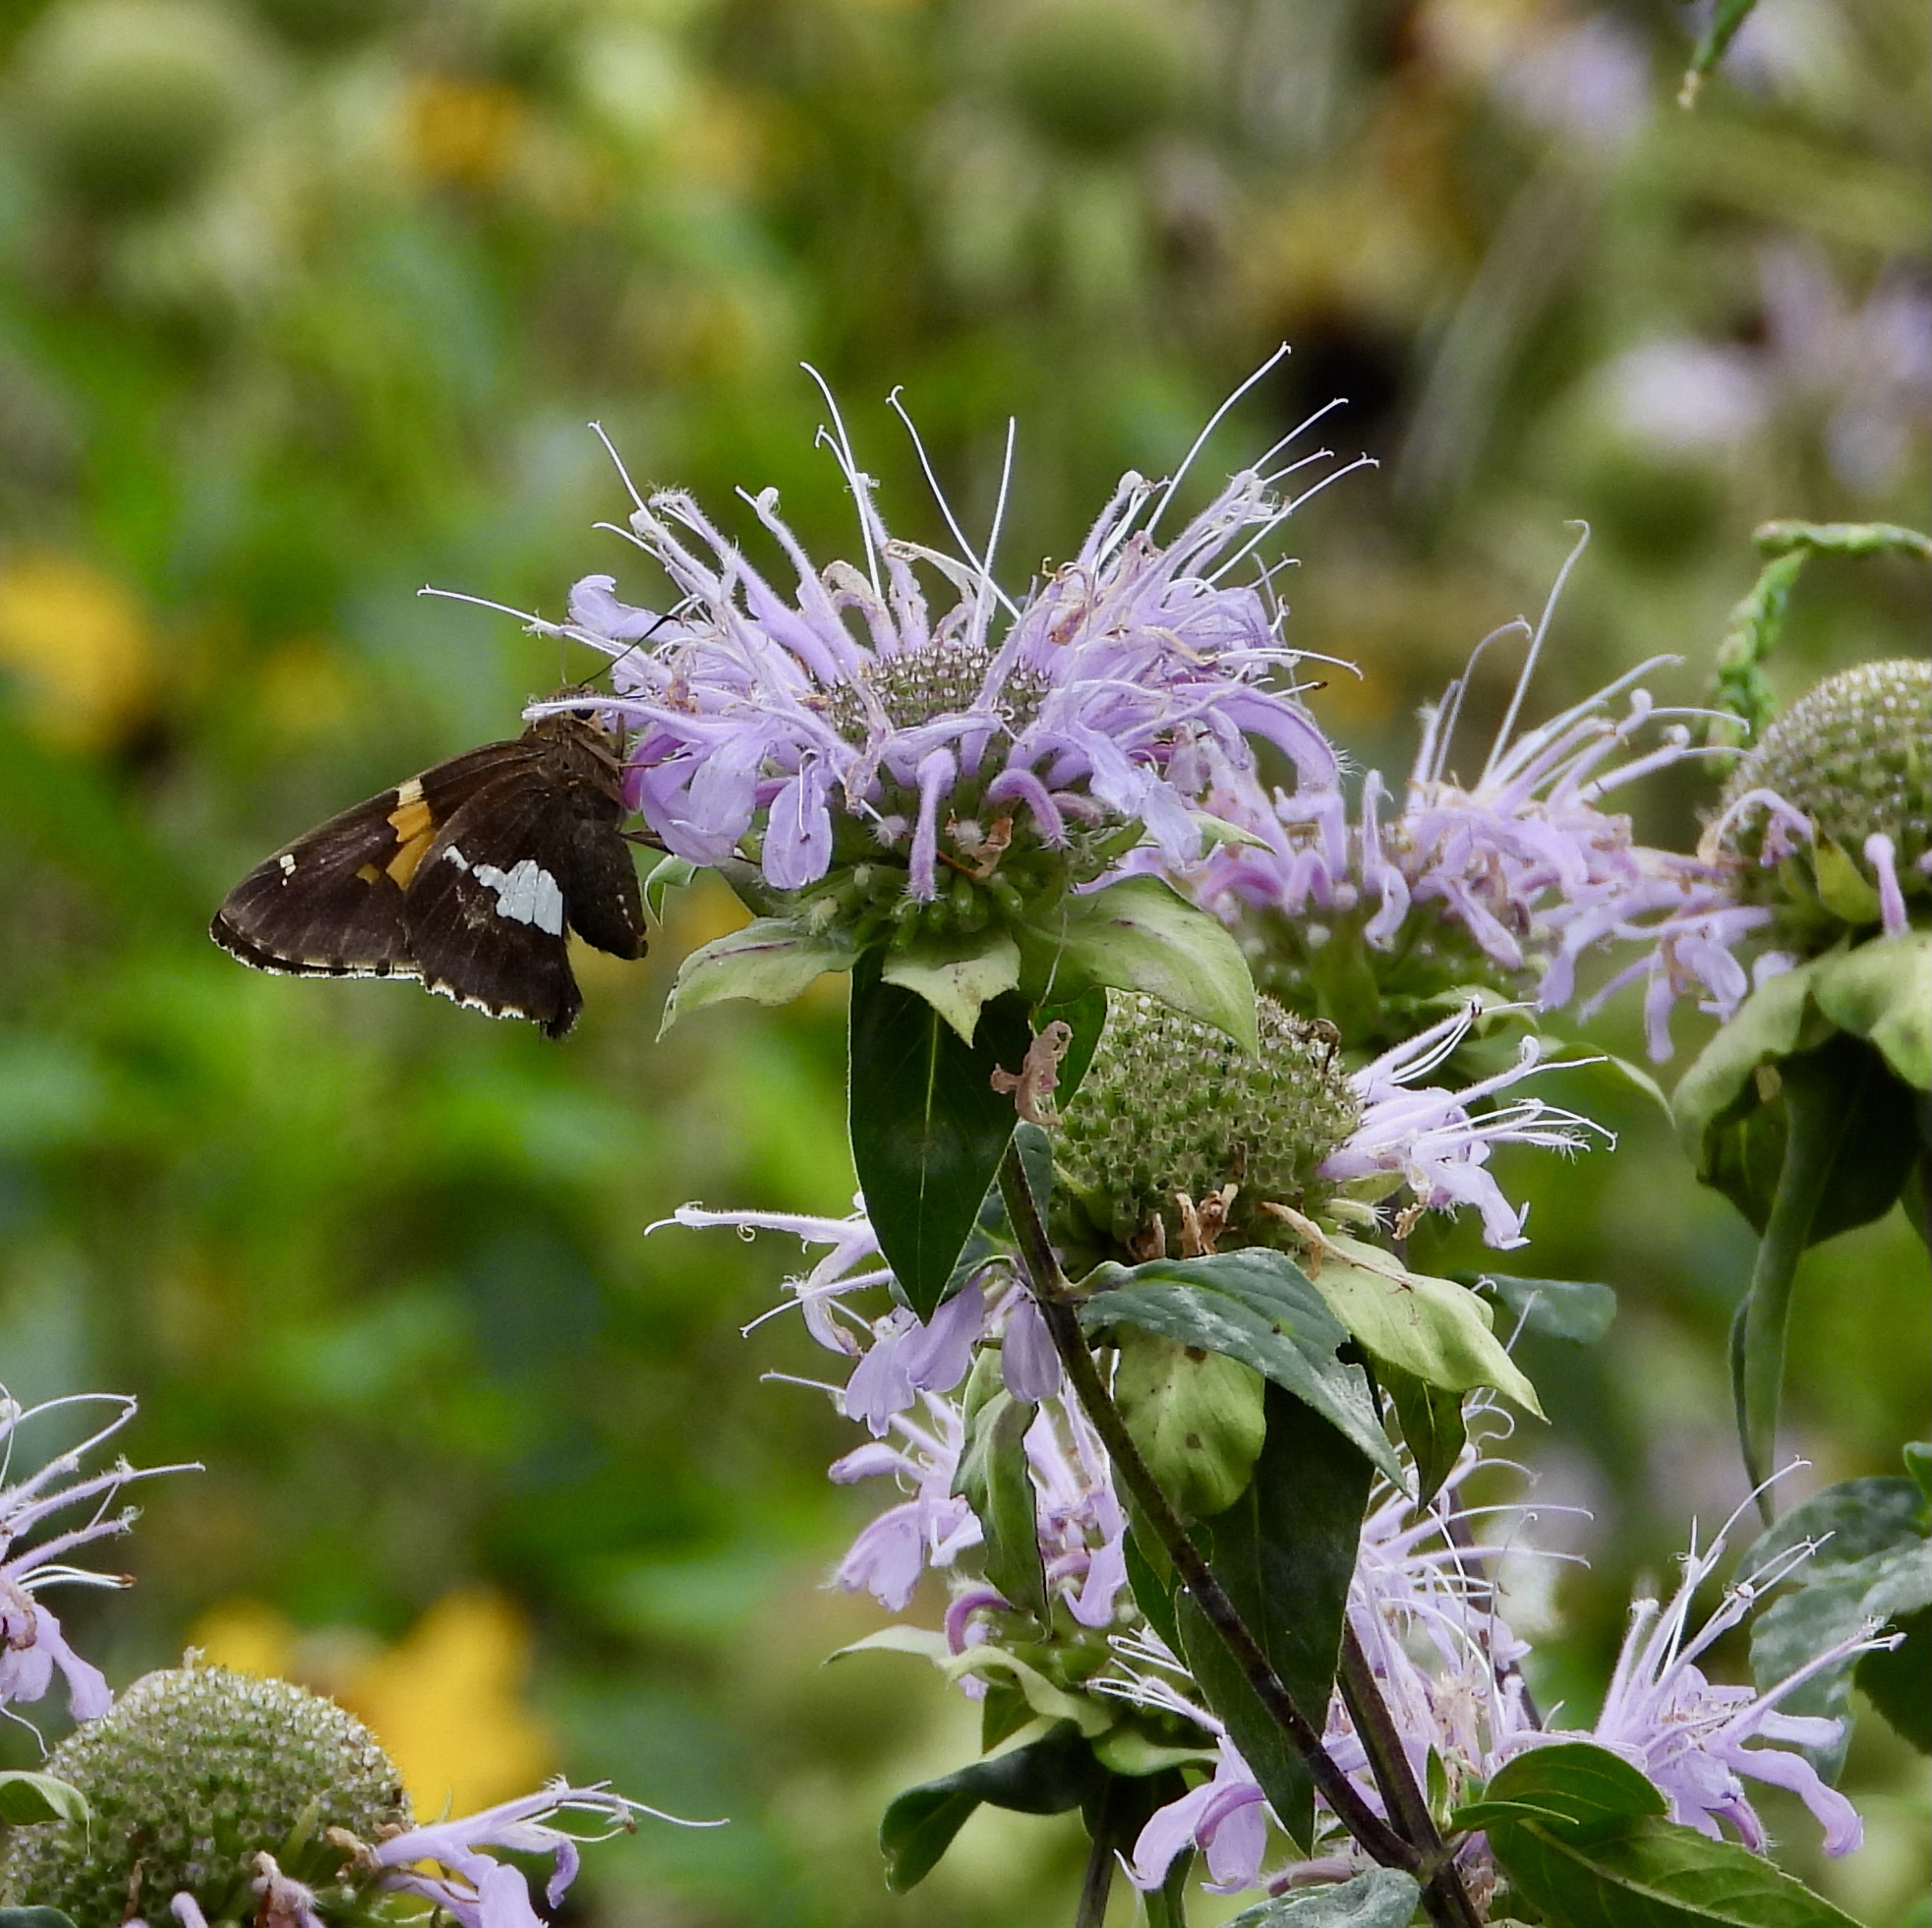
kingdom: Animalia
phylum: Arthropoda
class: Insecta
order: Lepidoptera
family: Hesperiidae
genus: Epargyreus
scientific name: Epargyreus clarus
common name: Silver-spotted skipper
